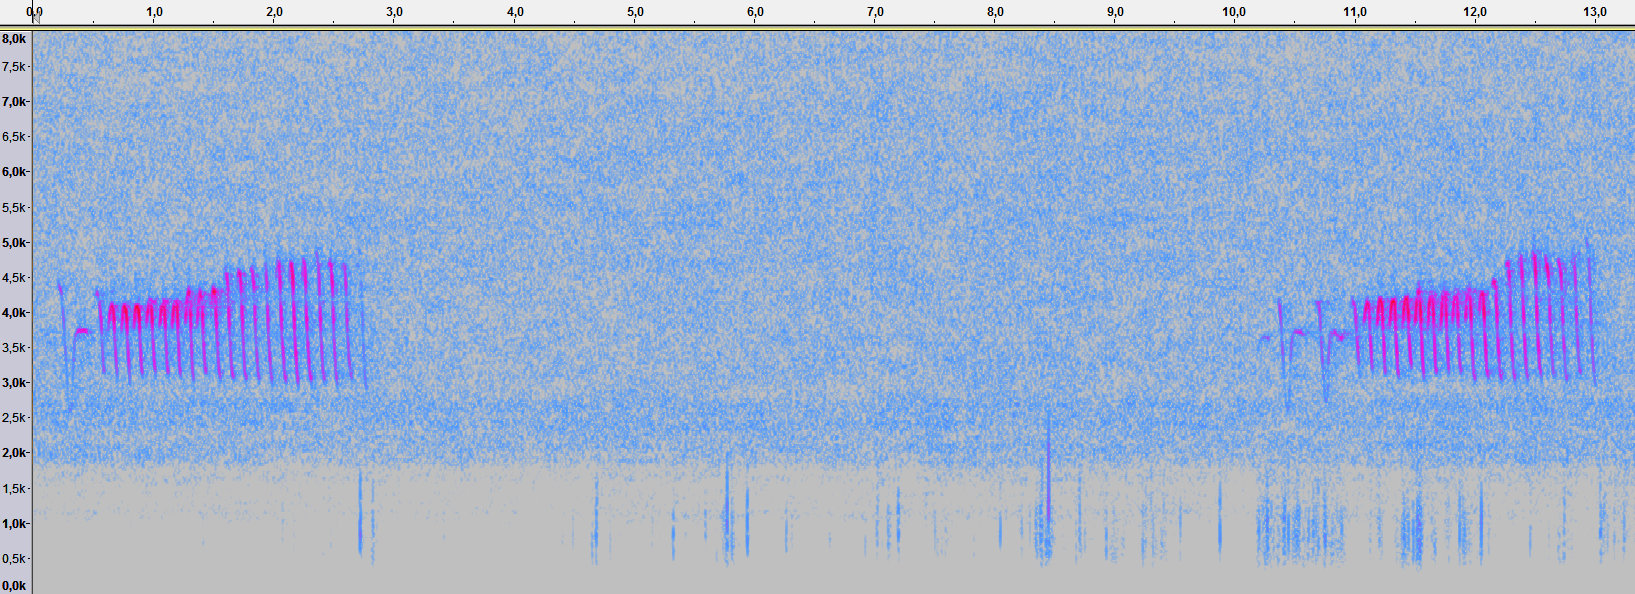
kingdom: Animalia
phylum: Chordata
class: Aves
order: Passeriformes
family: Passerellidae
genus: Spizella
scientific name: Spizella pusilla
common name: Field sparrow
